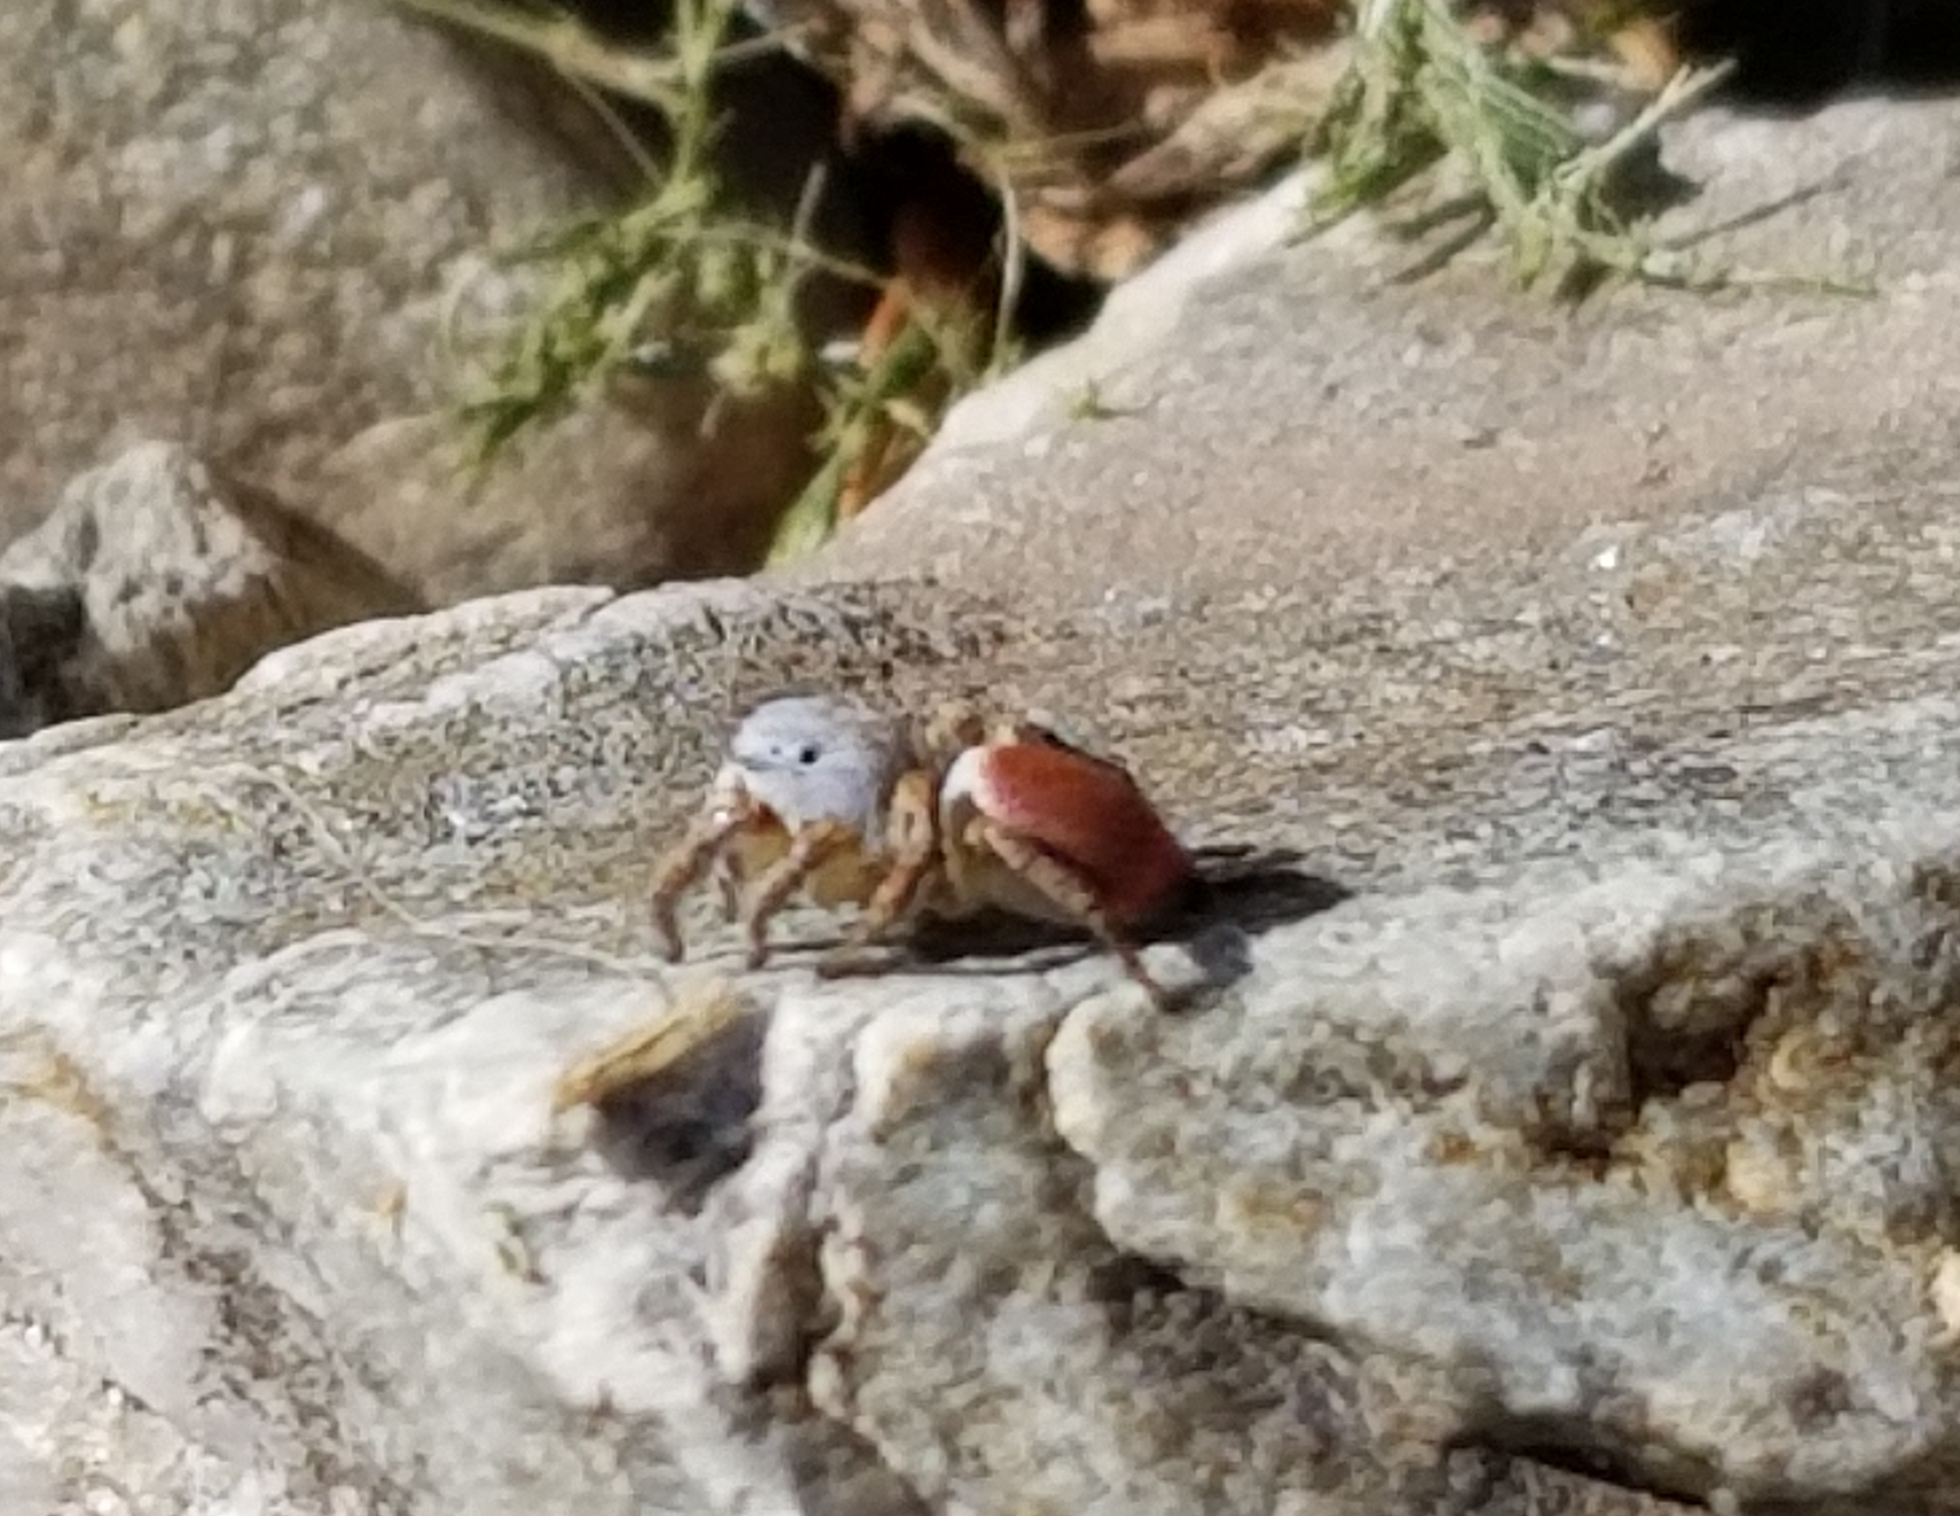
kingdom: Animalia
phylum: Arthropoda
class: Arachnida
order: Araneae
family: Salticidae
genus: Habronattus
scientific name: Habronattus decorus
